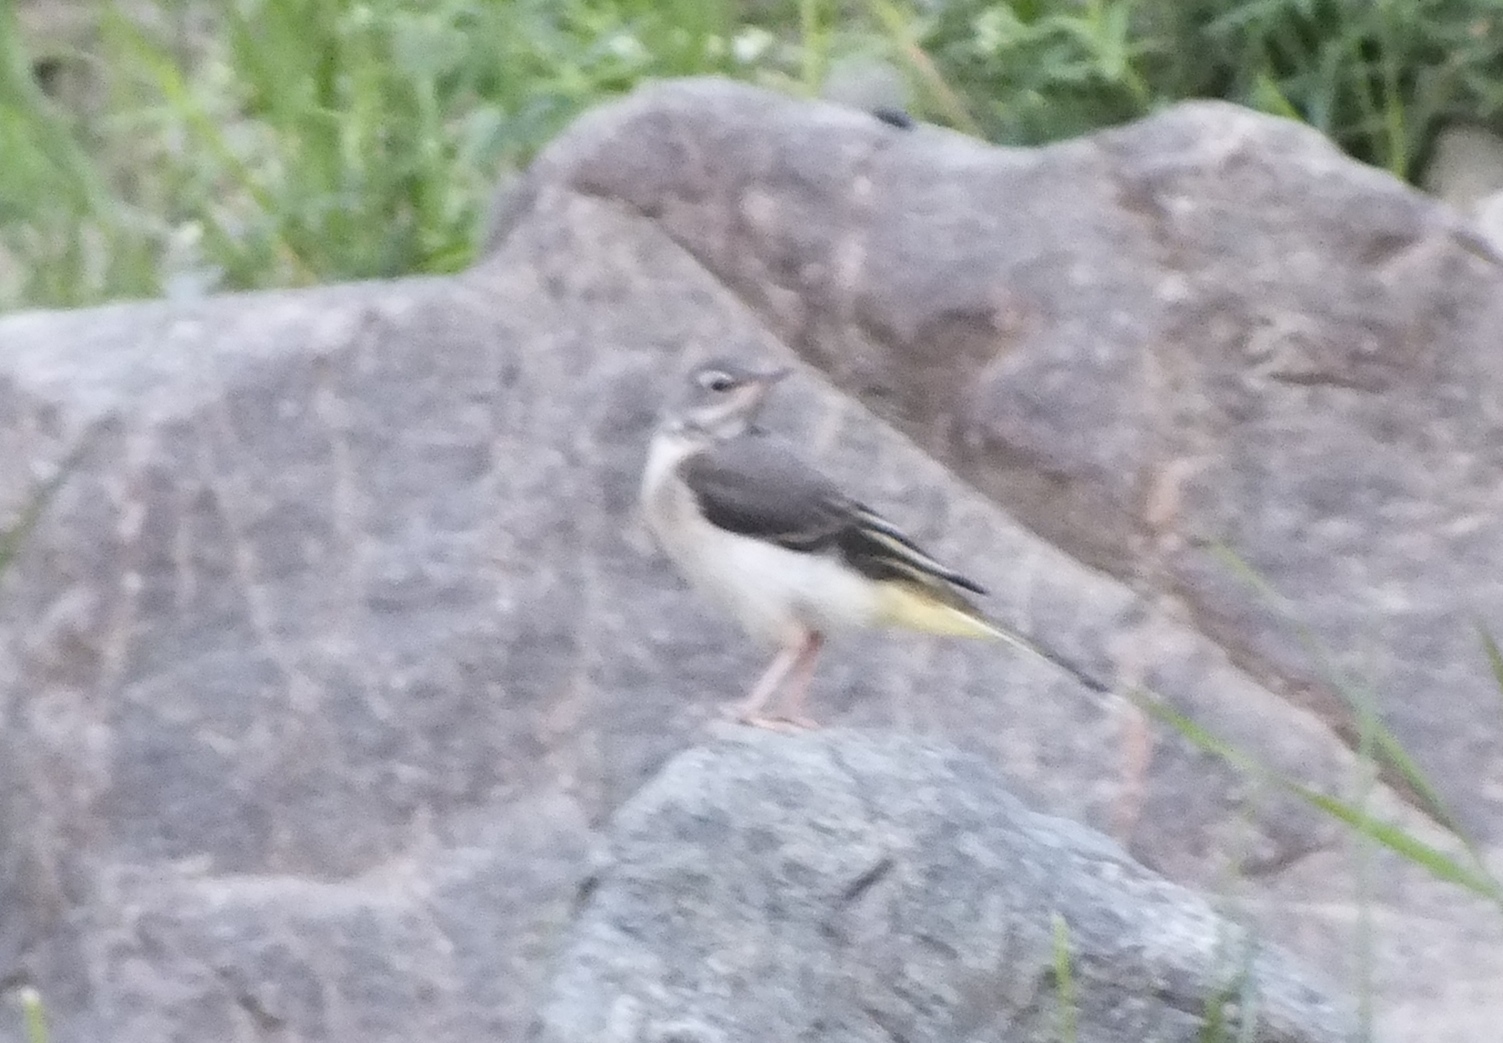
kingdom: Animalia
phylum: Chordata
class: Aves
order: Passeriformes
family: Motacillidae
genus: Motacilla
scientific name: Motacilla cinerea
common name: Grey wagtail
